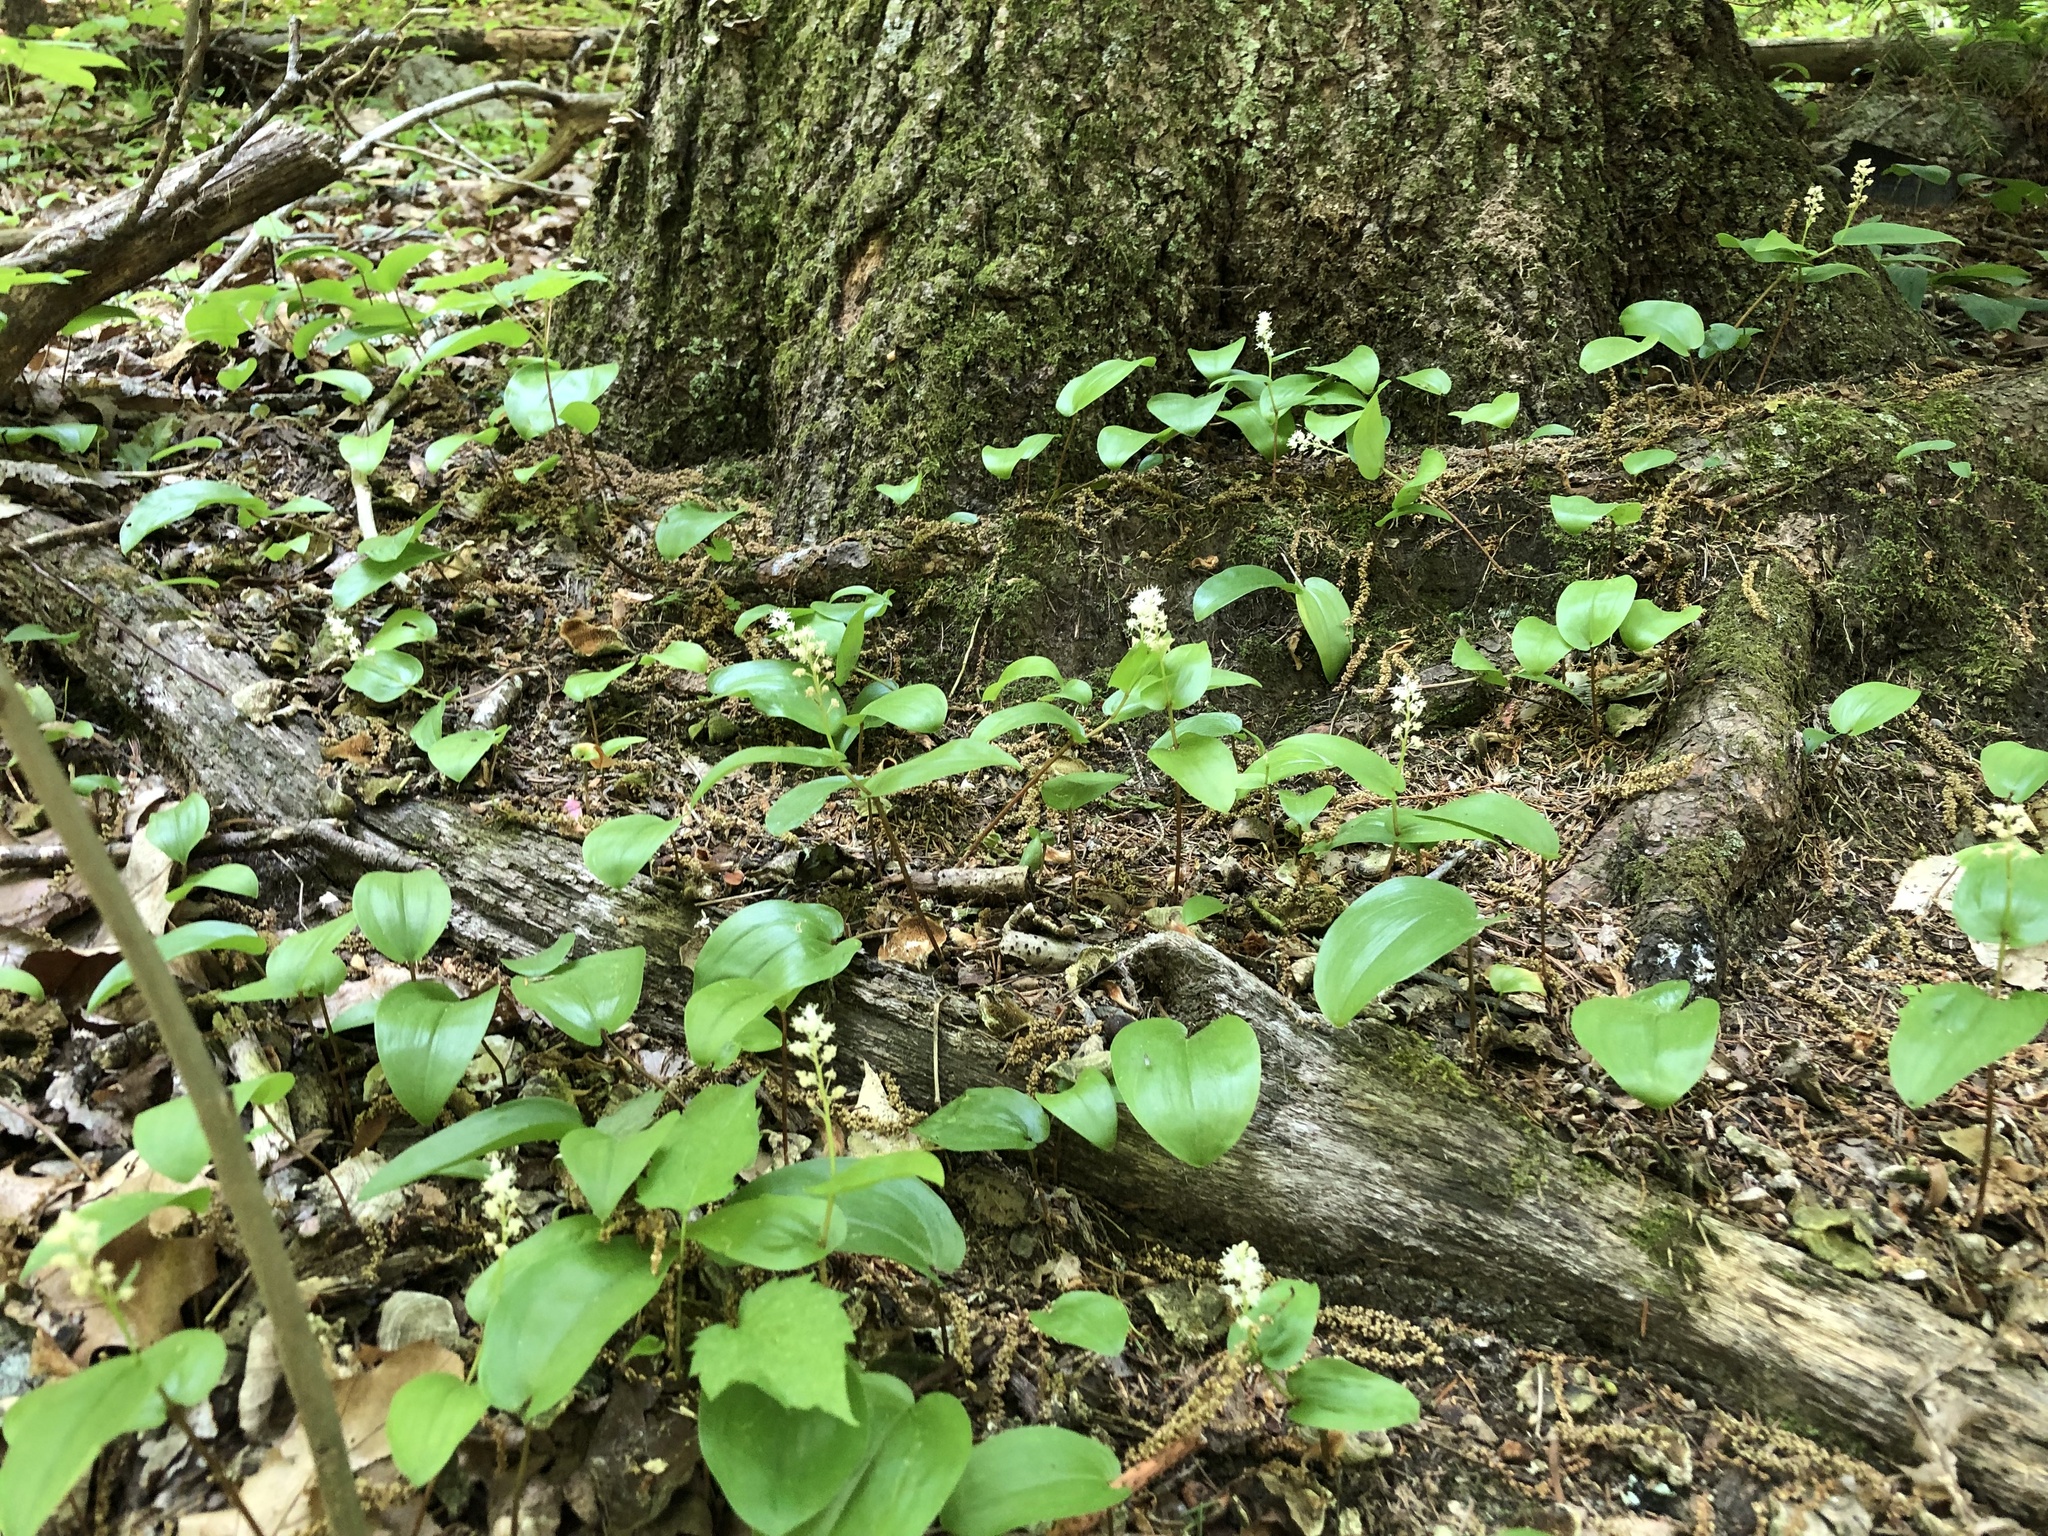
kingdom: Plantae
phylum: Tracheophyta
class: Liliopsida
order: Asparagales
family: Asparagaceae
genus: Maianthemum
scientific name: Maianthemum canadense
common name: False lily-of-the-valley
